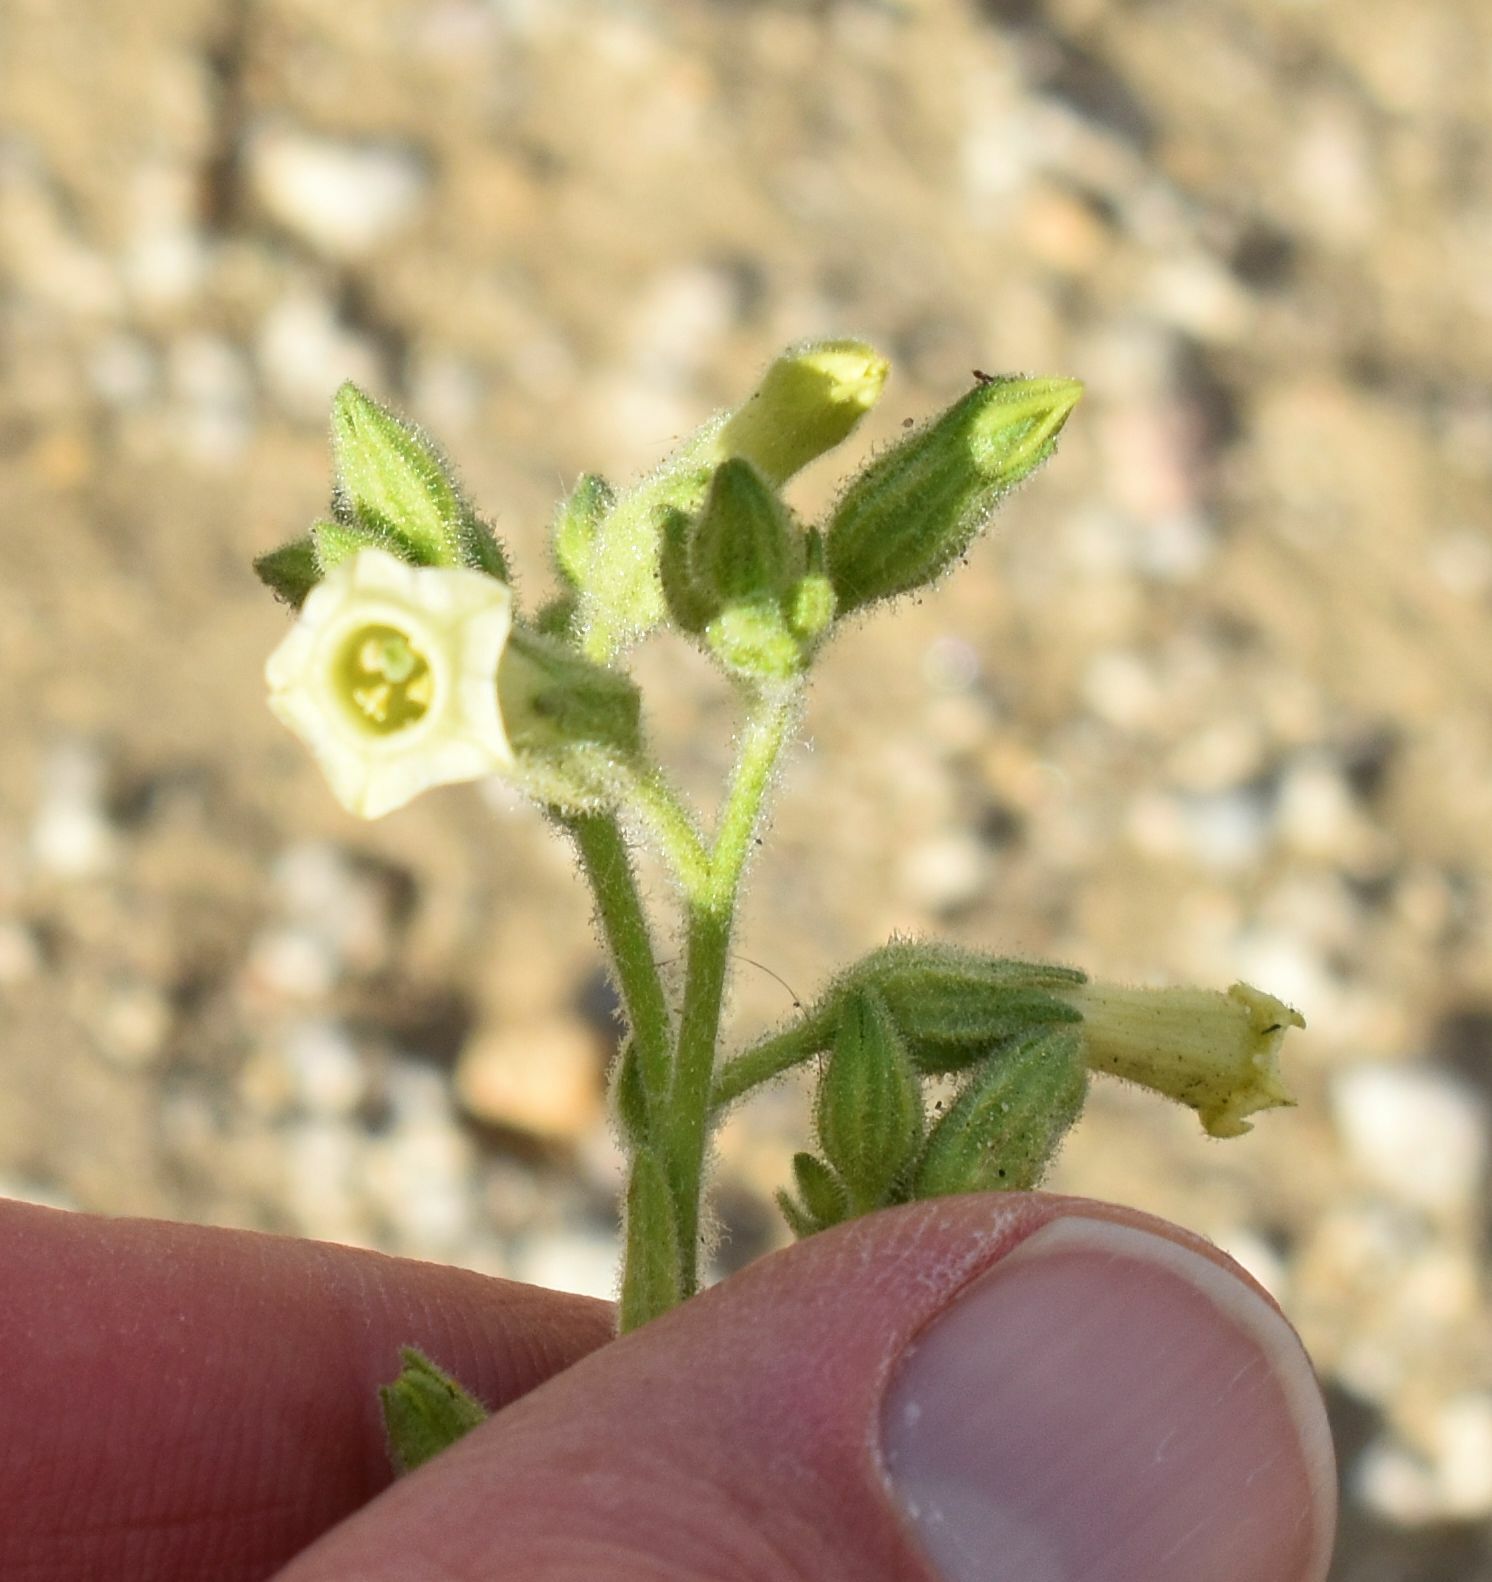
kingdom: Plantae
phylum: Tracheophyta
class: Magnoliopsida
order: Solanales
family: Solanaceae
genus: Nicotiana
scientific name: Nicotiana obtusifolia
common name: Desert tobacco
